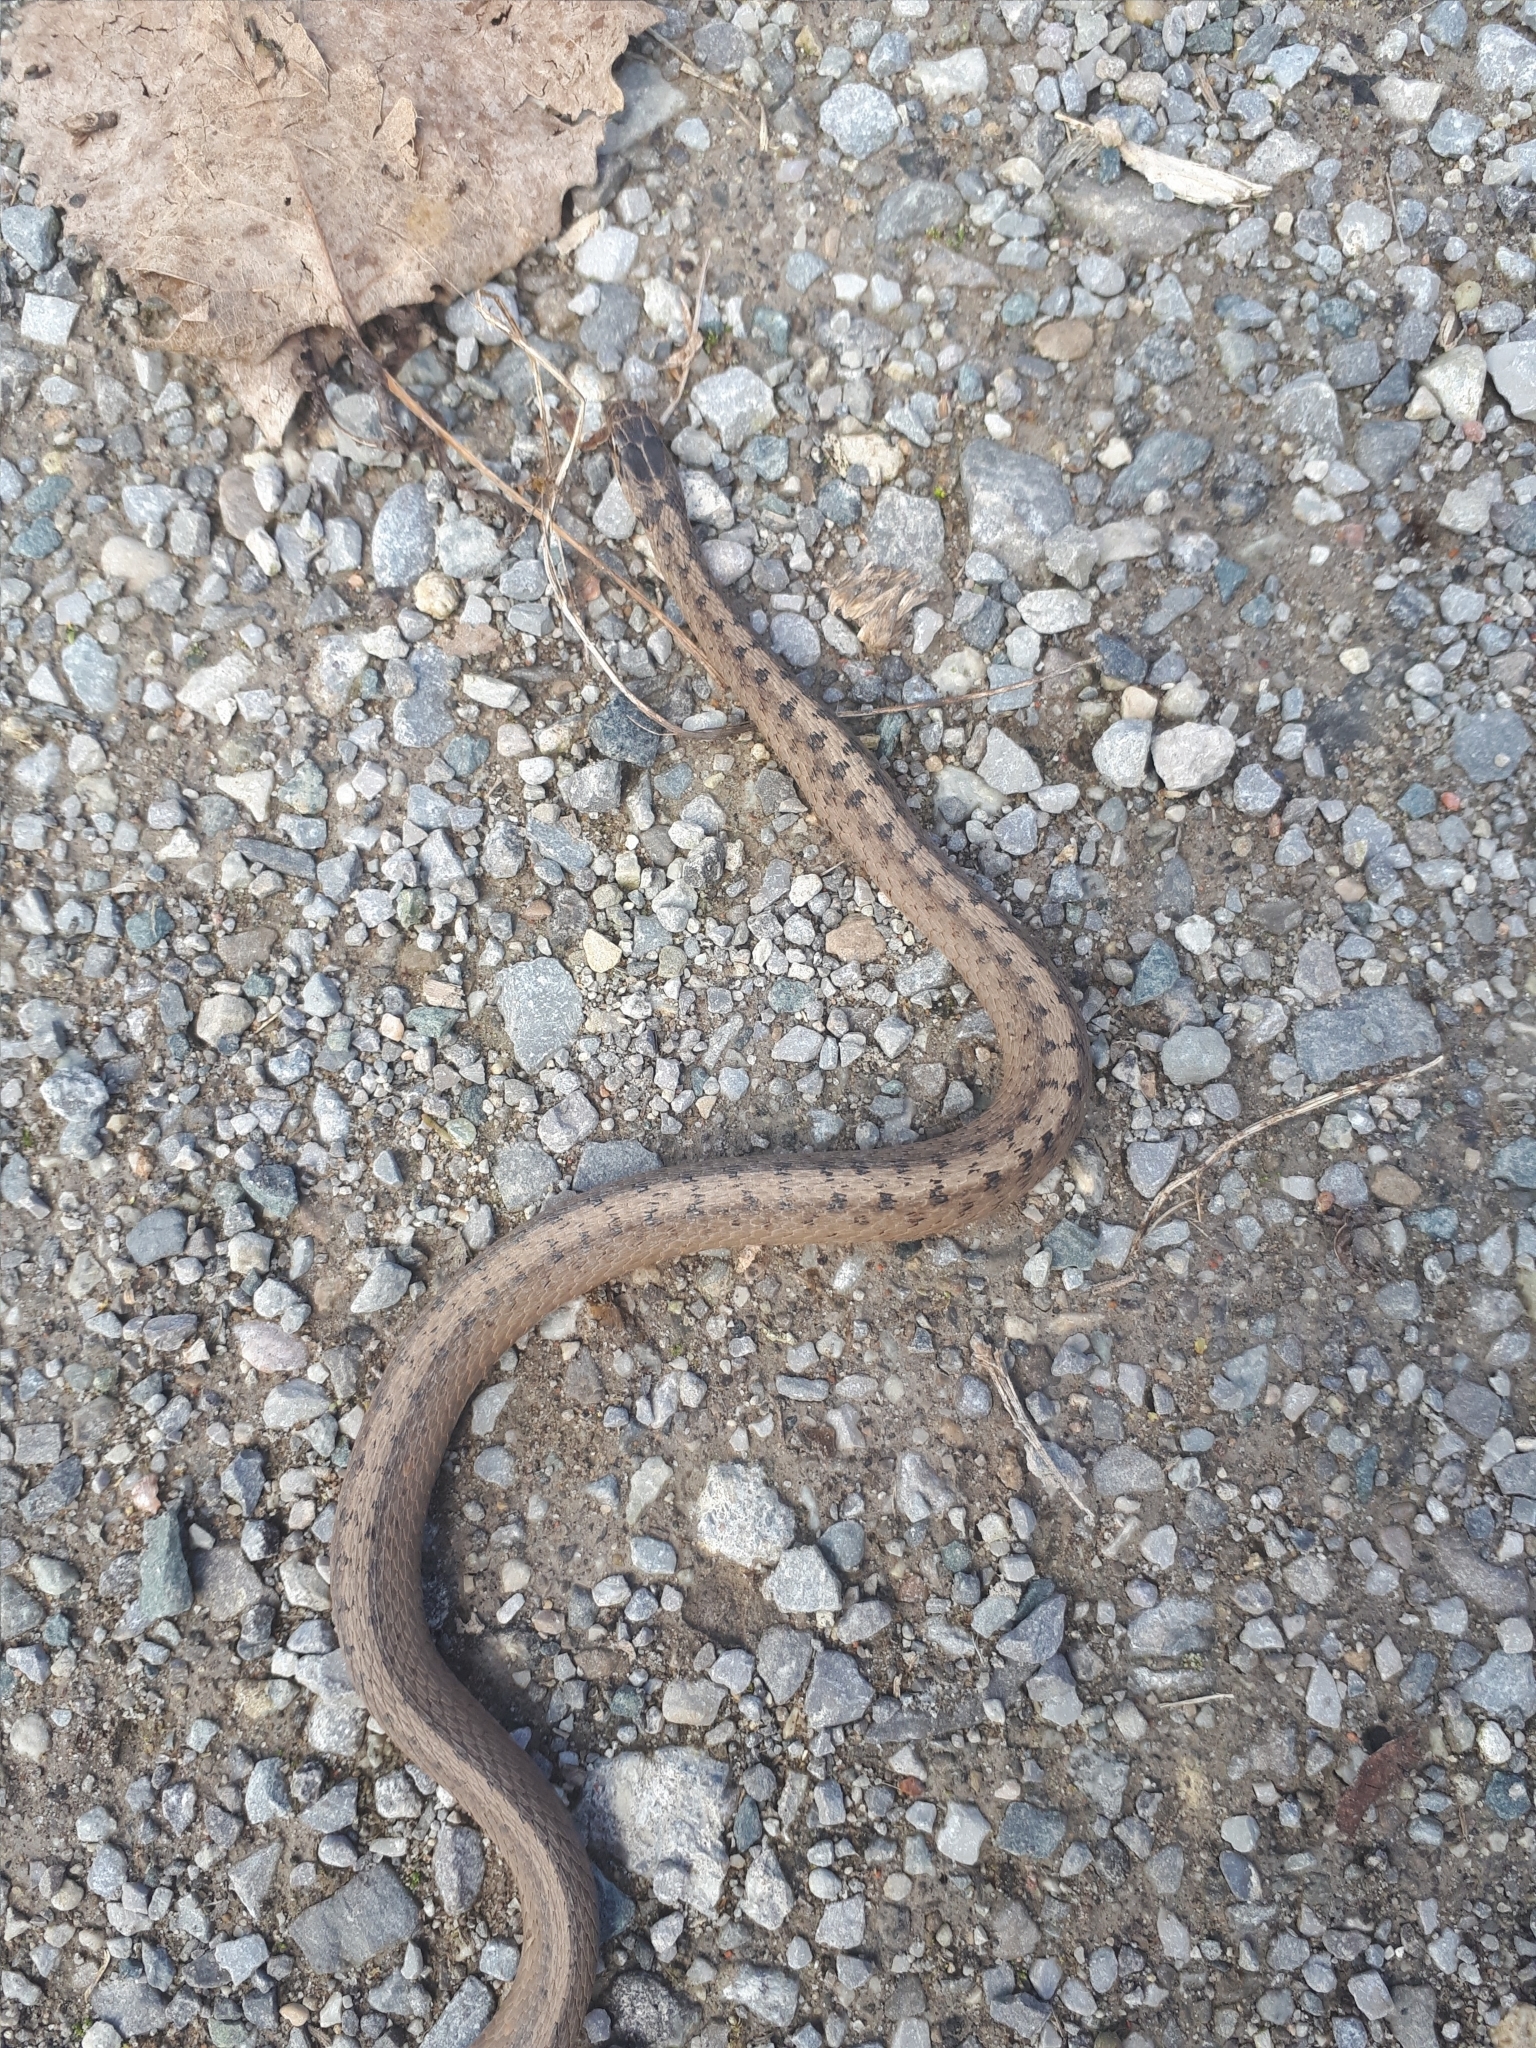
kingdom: Animalia
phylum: Chordata
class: Squamata
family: Colubridae
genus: Storeria
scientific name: Storeria dekayi
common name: (dekay’s) brown snake
